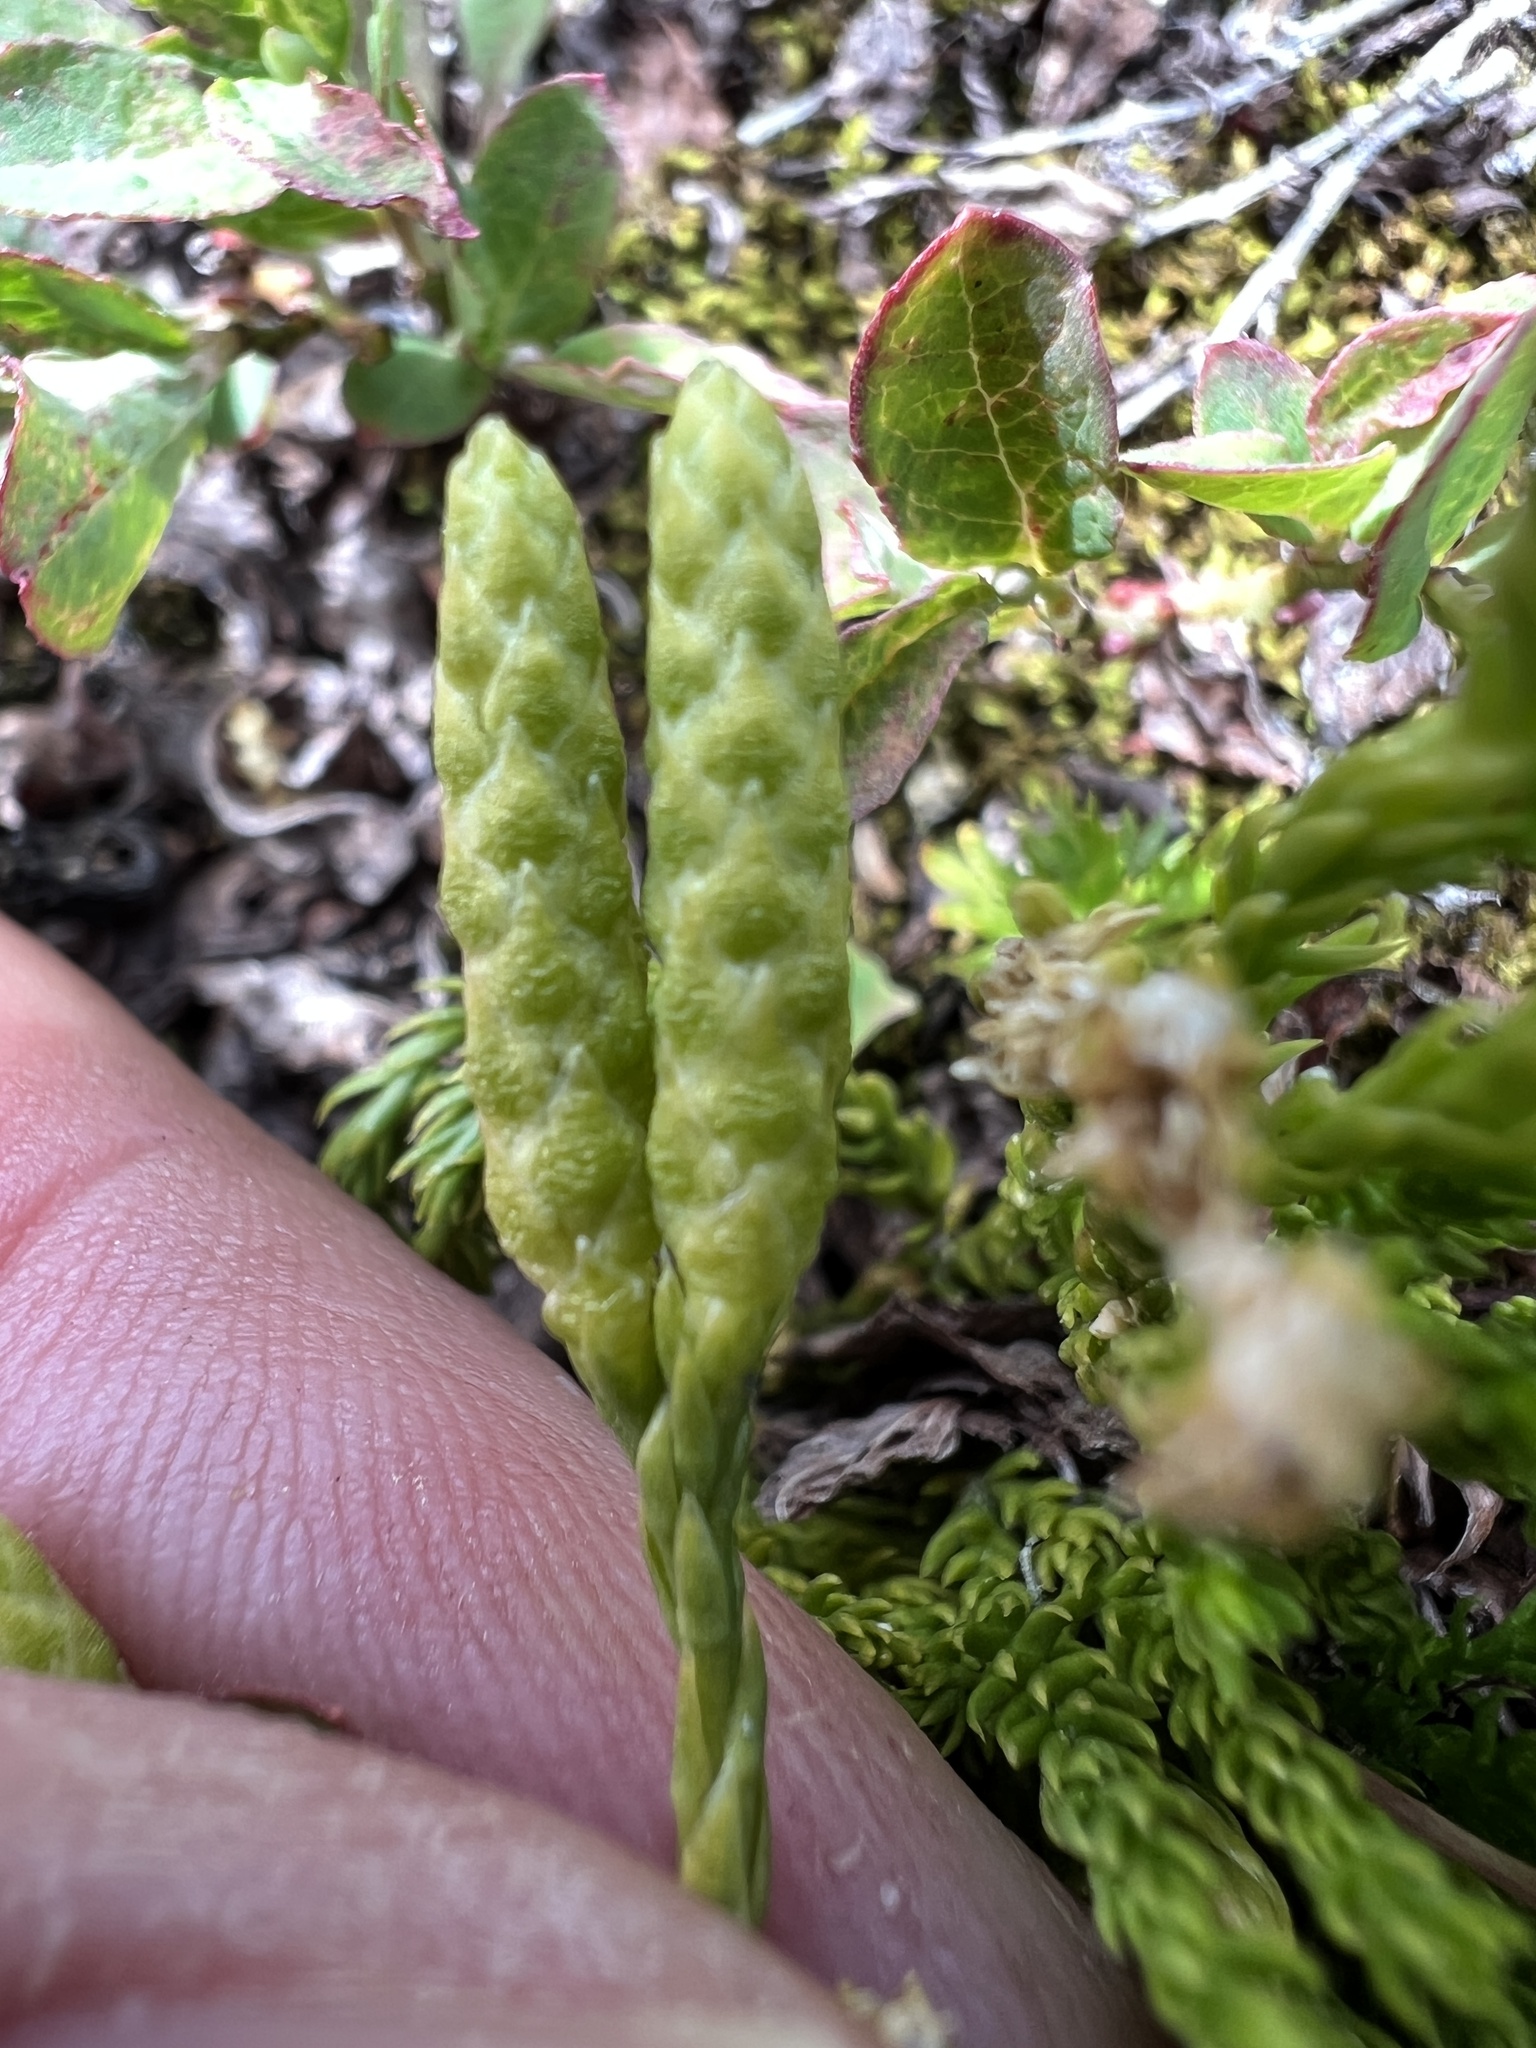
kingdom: Plantae
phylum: Tracheophyta
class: Lycopodiopsida
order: Lycopodiales
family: Lycopodiaceae
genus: Diphasiastrum
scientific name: Diphasiastrum sitchense
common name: Alaska clubmoss
